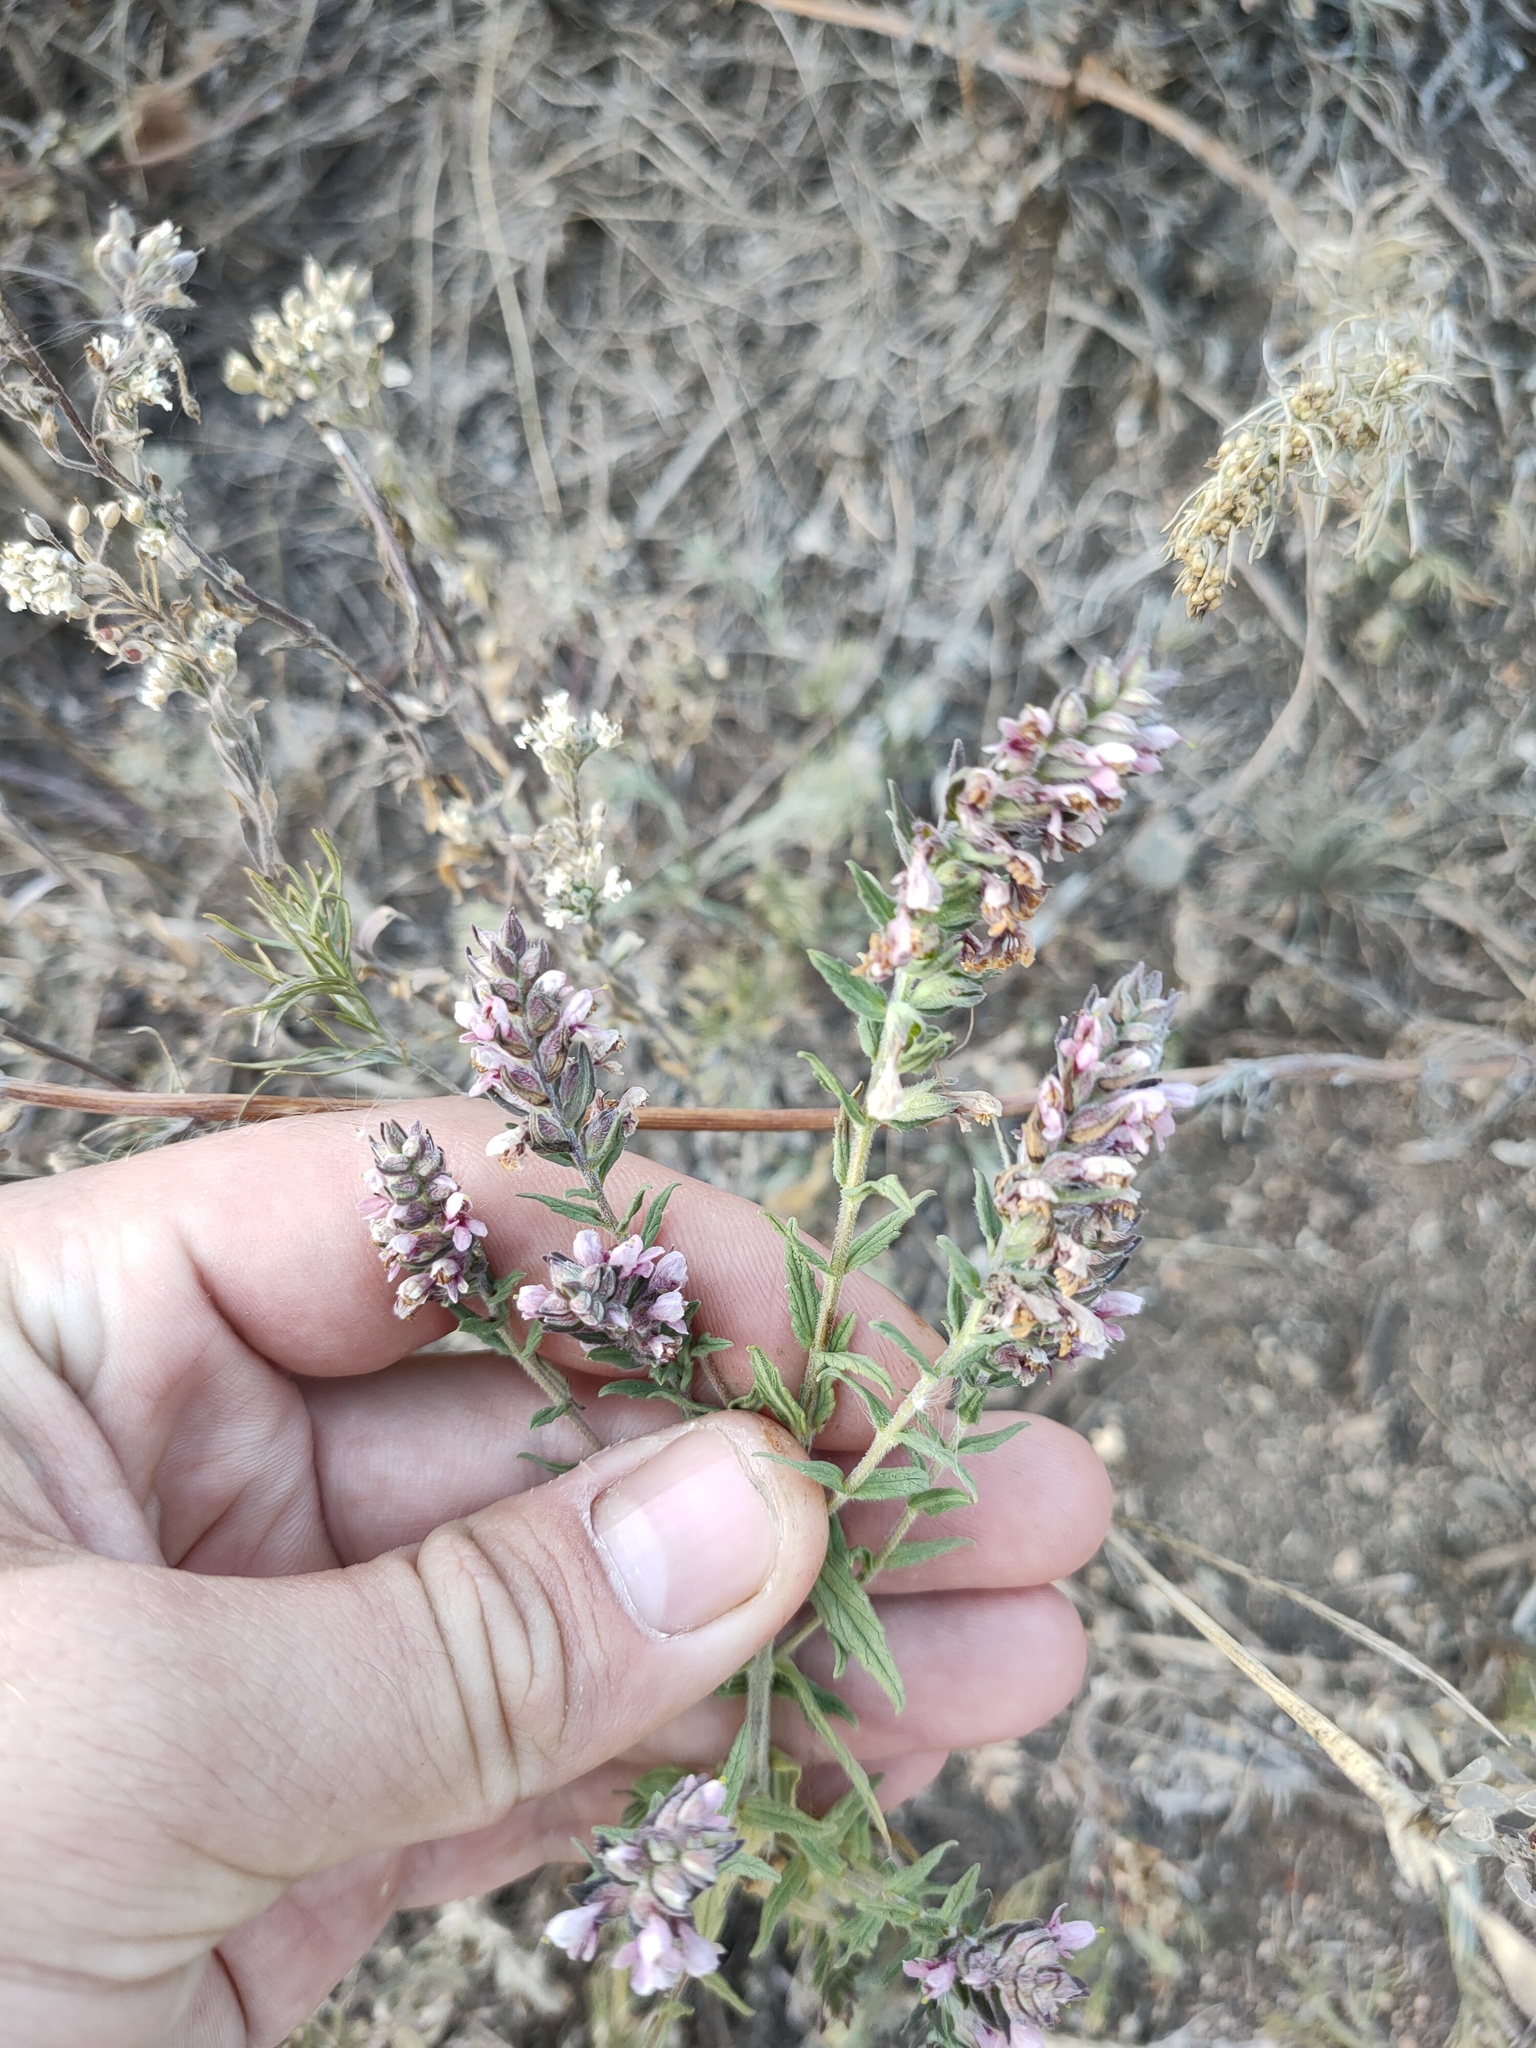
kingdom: Plantae
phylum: Tracheophyta
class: Magnoliopsida
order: Lamiales
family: Orobanchaceae
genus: Odontites
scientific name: Odontites vulgaris
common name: Broomrape
